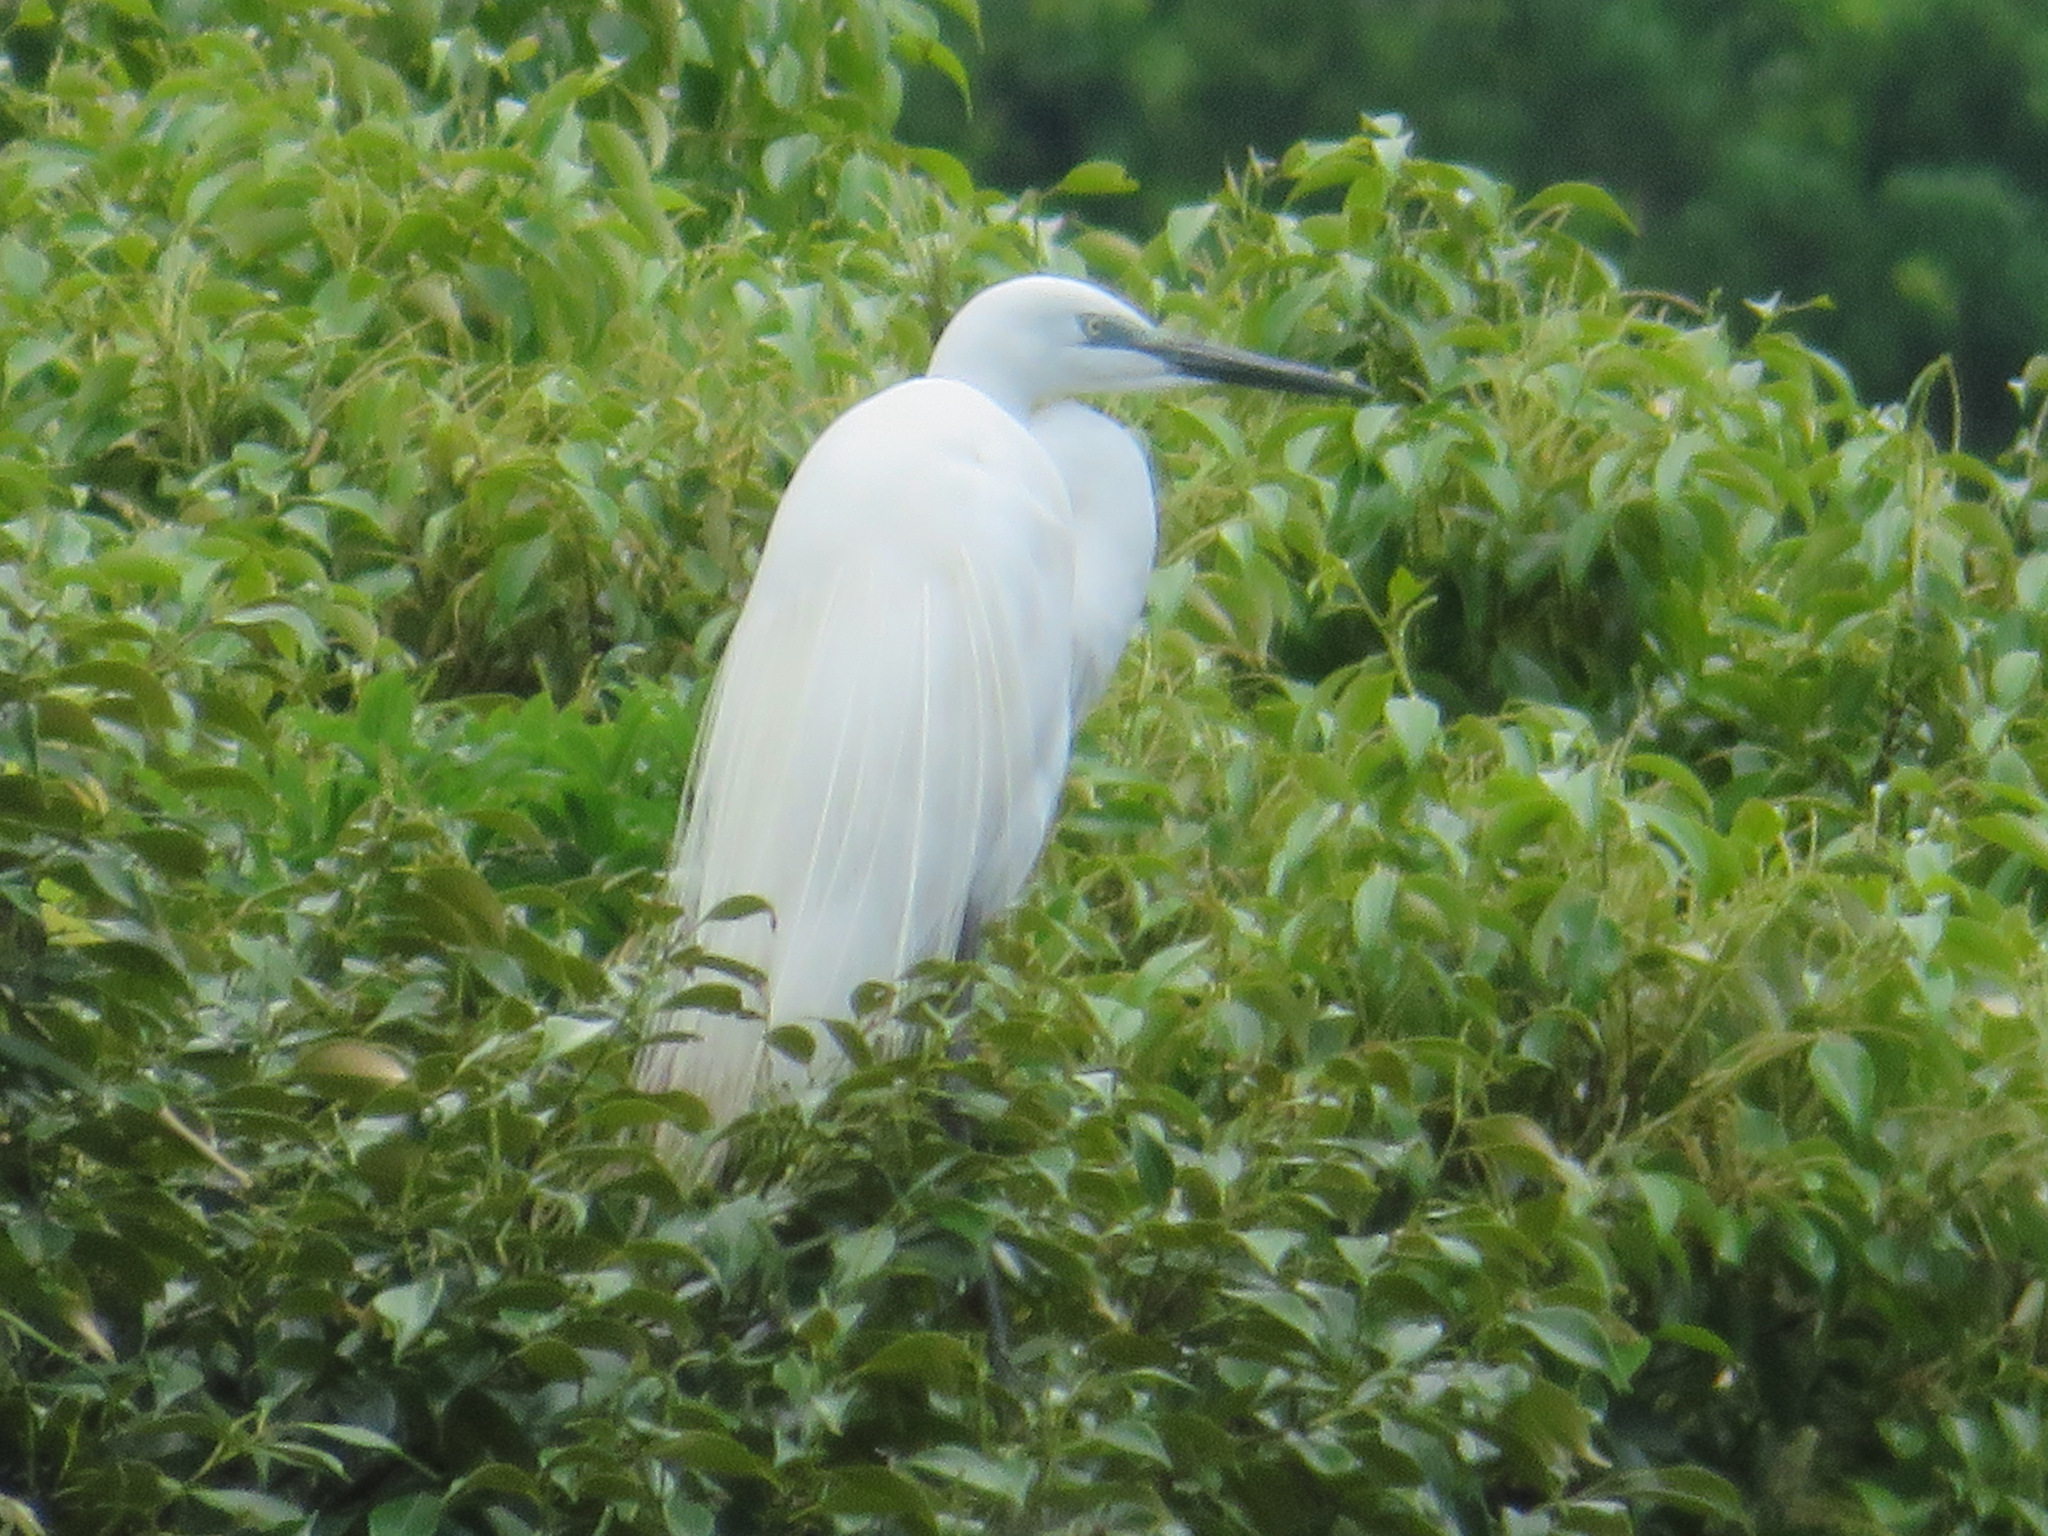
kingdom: Animalia
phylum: Chordata
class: Aves
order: Pelecaniformes
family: Ardeidae
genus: Ardea
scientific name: Ardea alba
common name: Great egret
